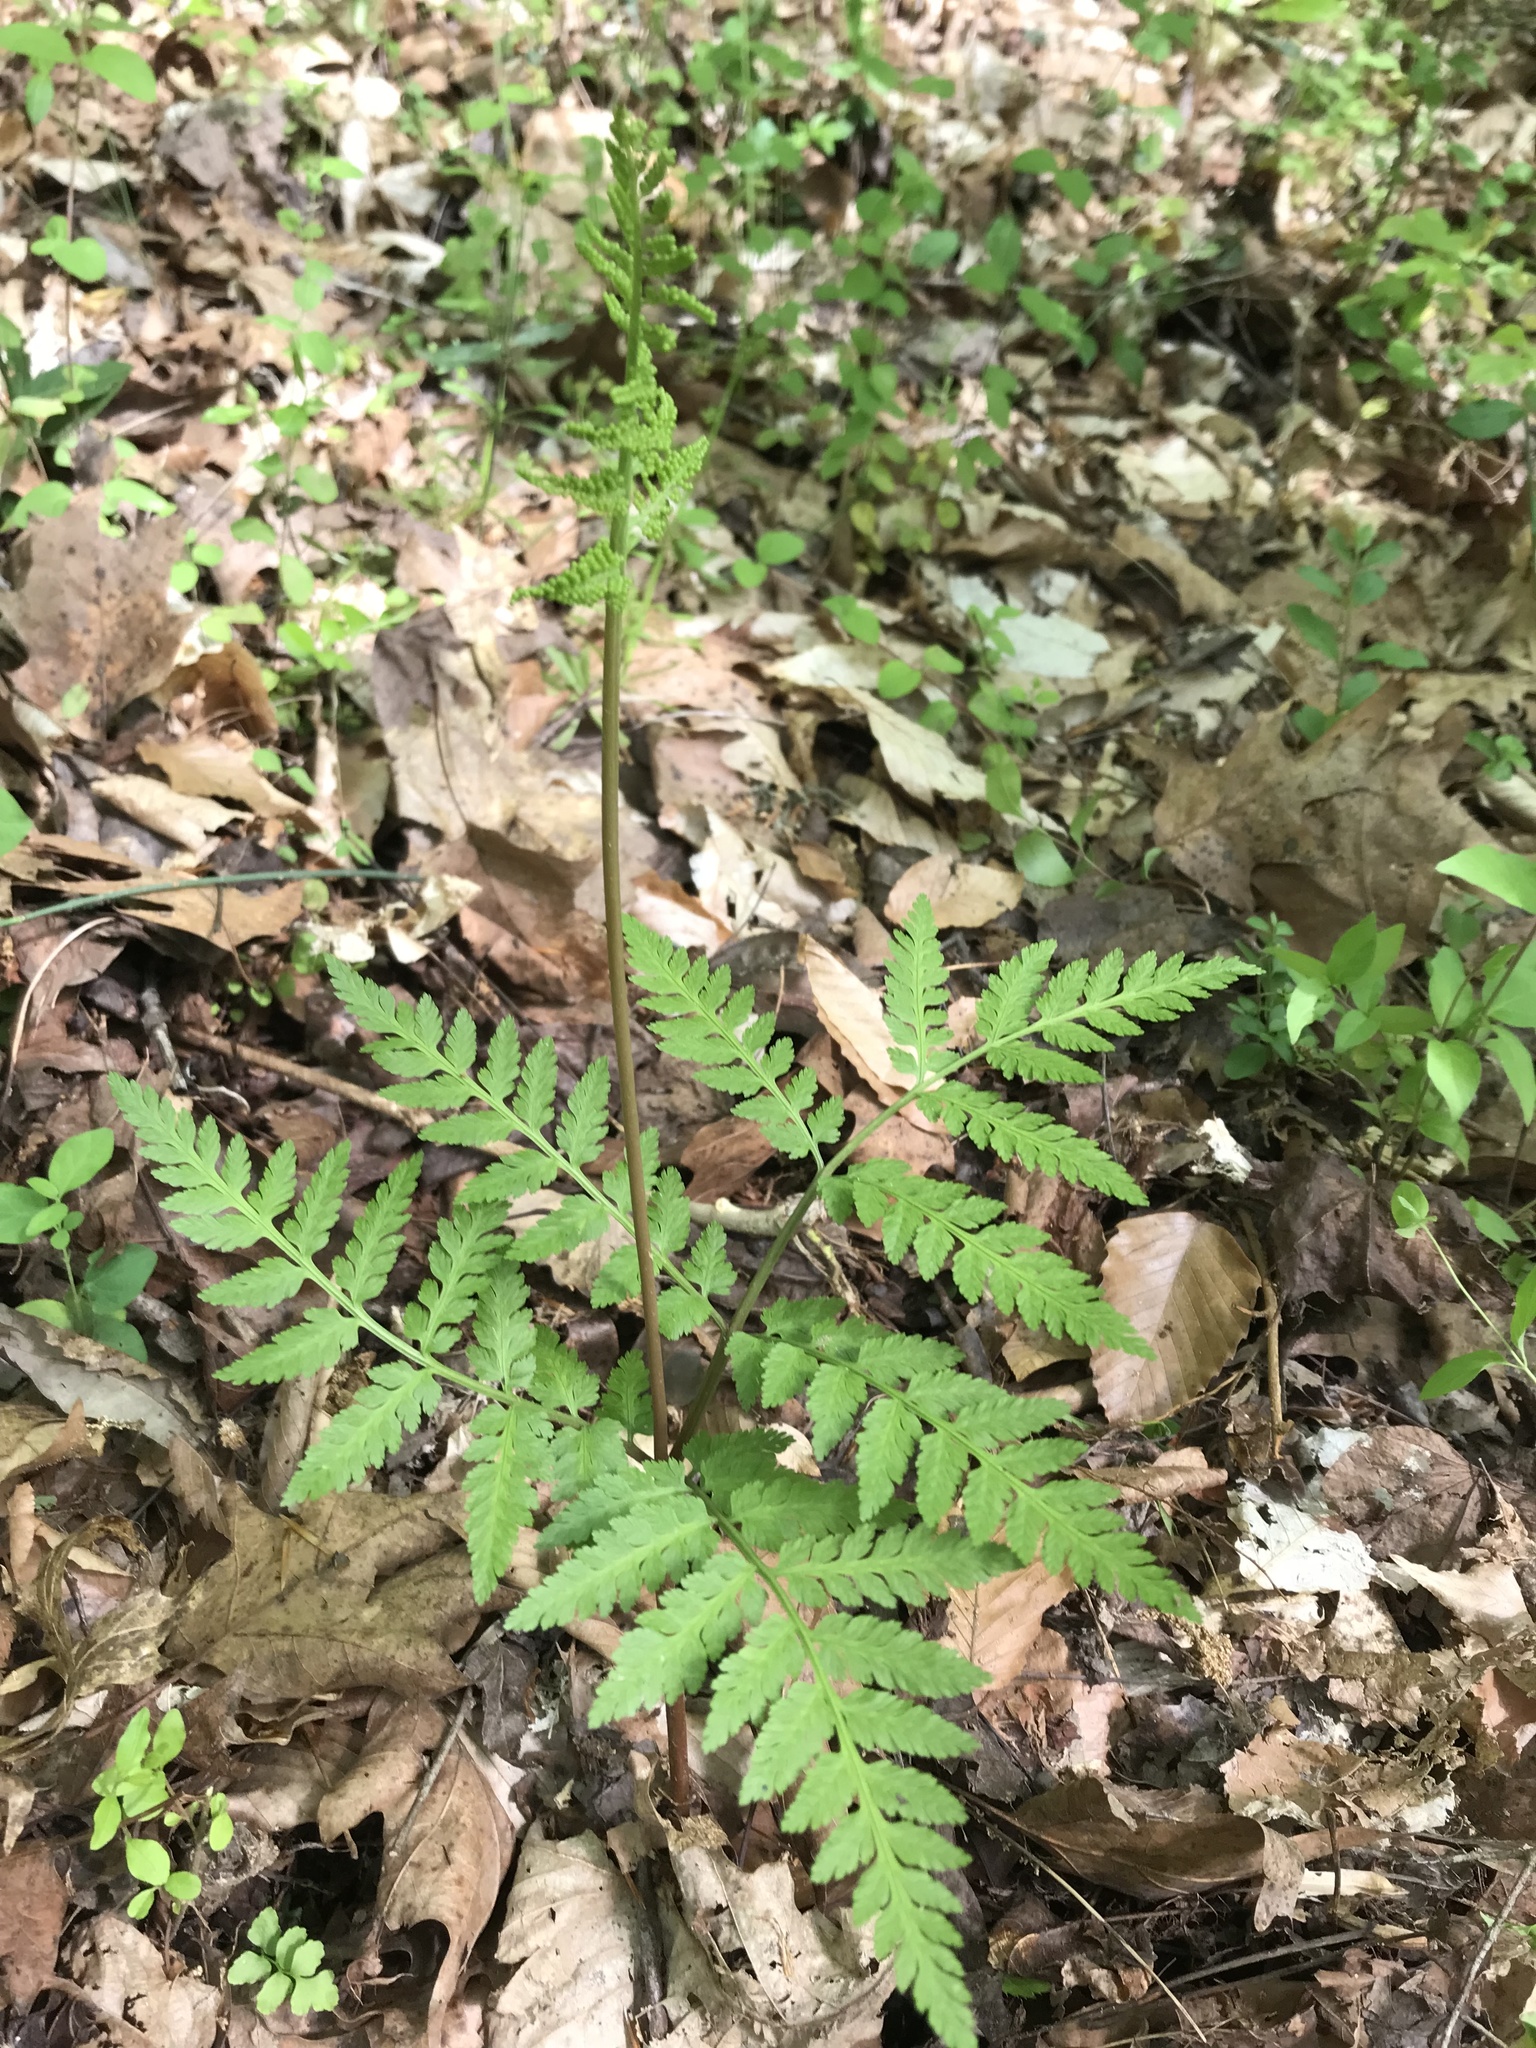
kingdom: Plantae
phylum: Tracheophyta
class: Polypodiopsida
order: Ophioglossales
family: Ophioglossaceae
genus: Botrypus
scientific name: Botrypus virginianus
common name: Common grapefern
